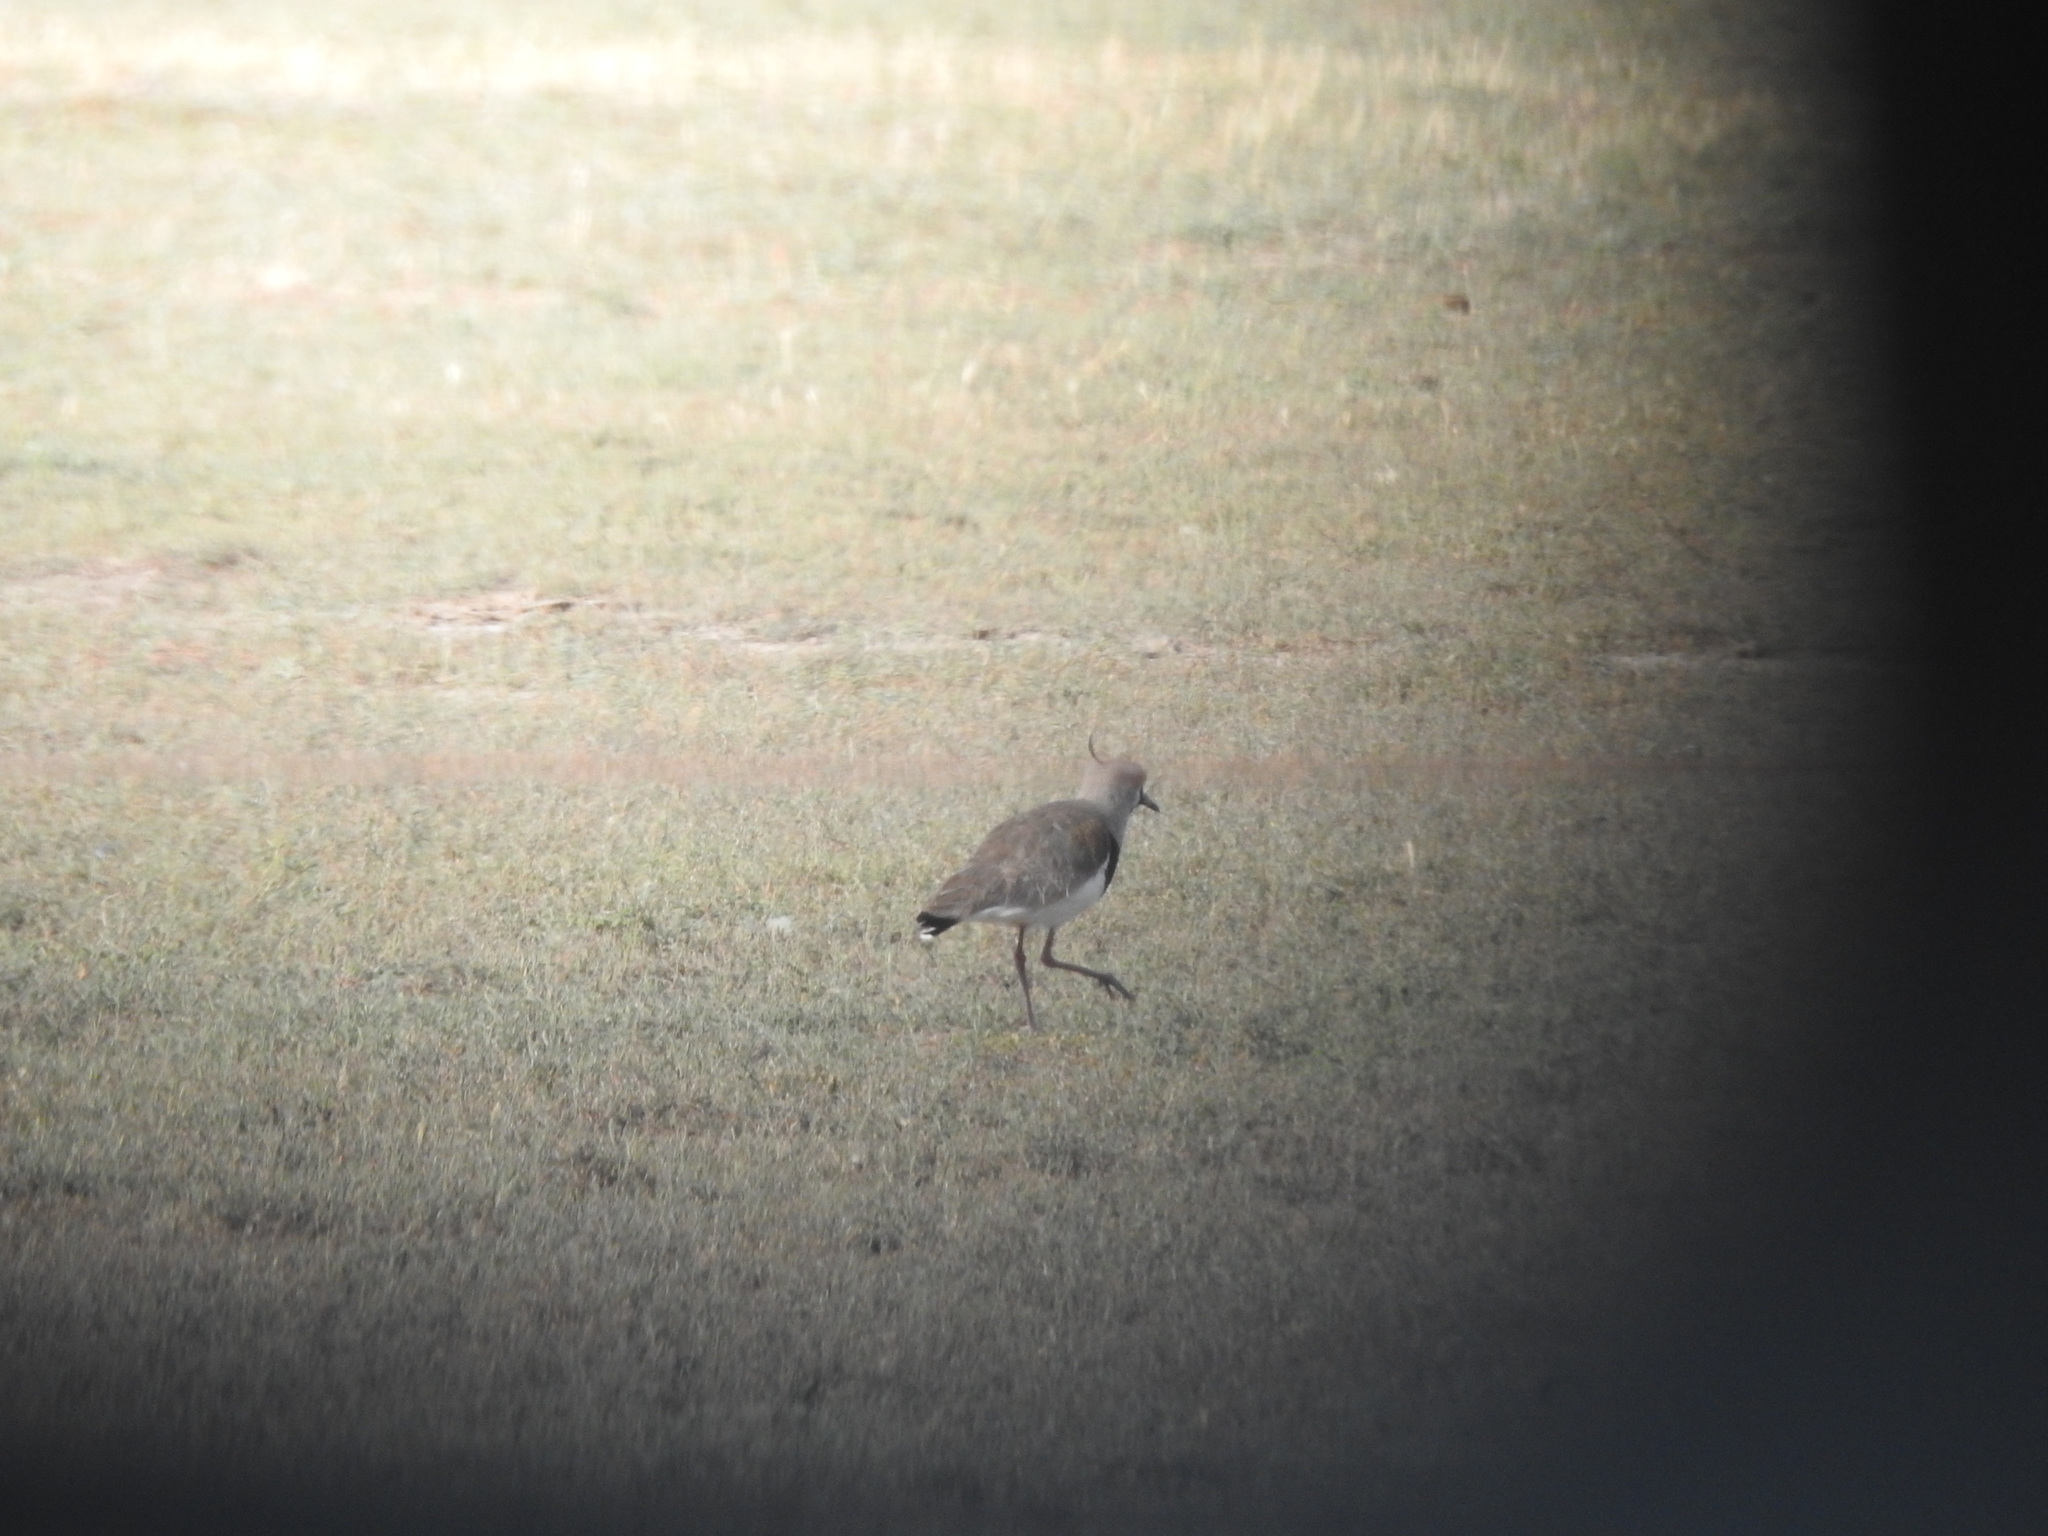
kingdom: Animalia
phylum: Chordata
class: Aves
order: Charadriiformes
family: Charadriidae
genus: Vanellus
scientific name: Vanellus chilensis
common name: Southern lapwing
